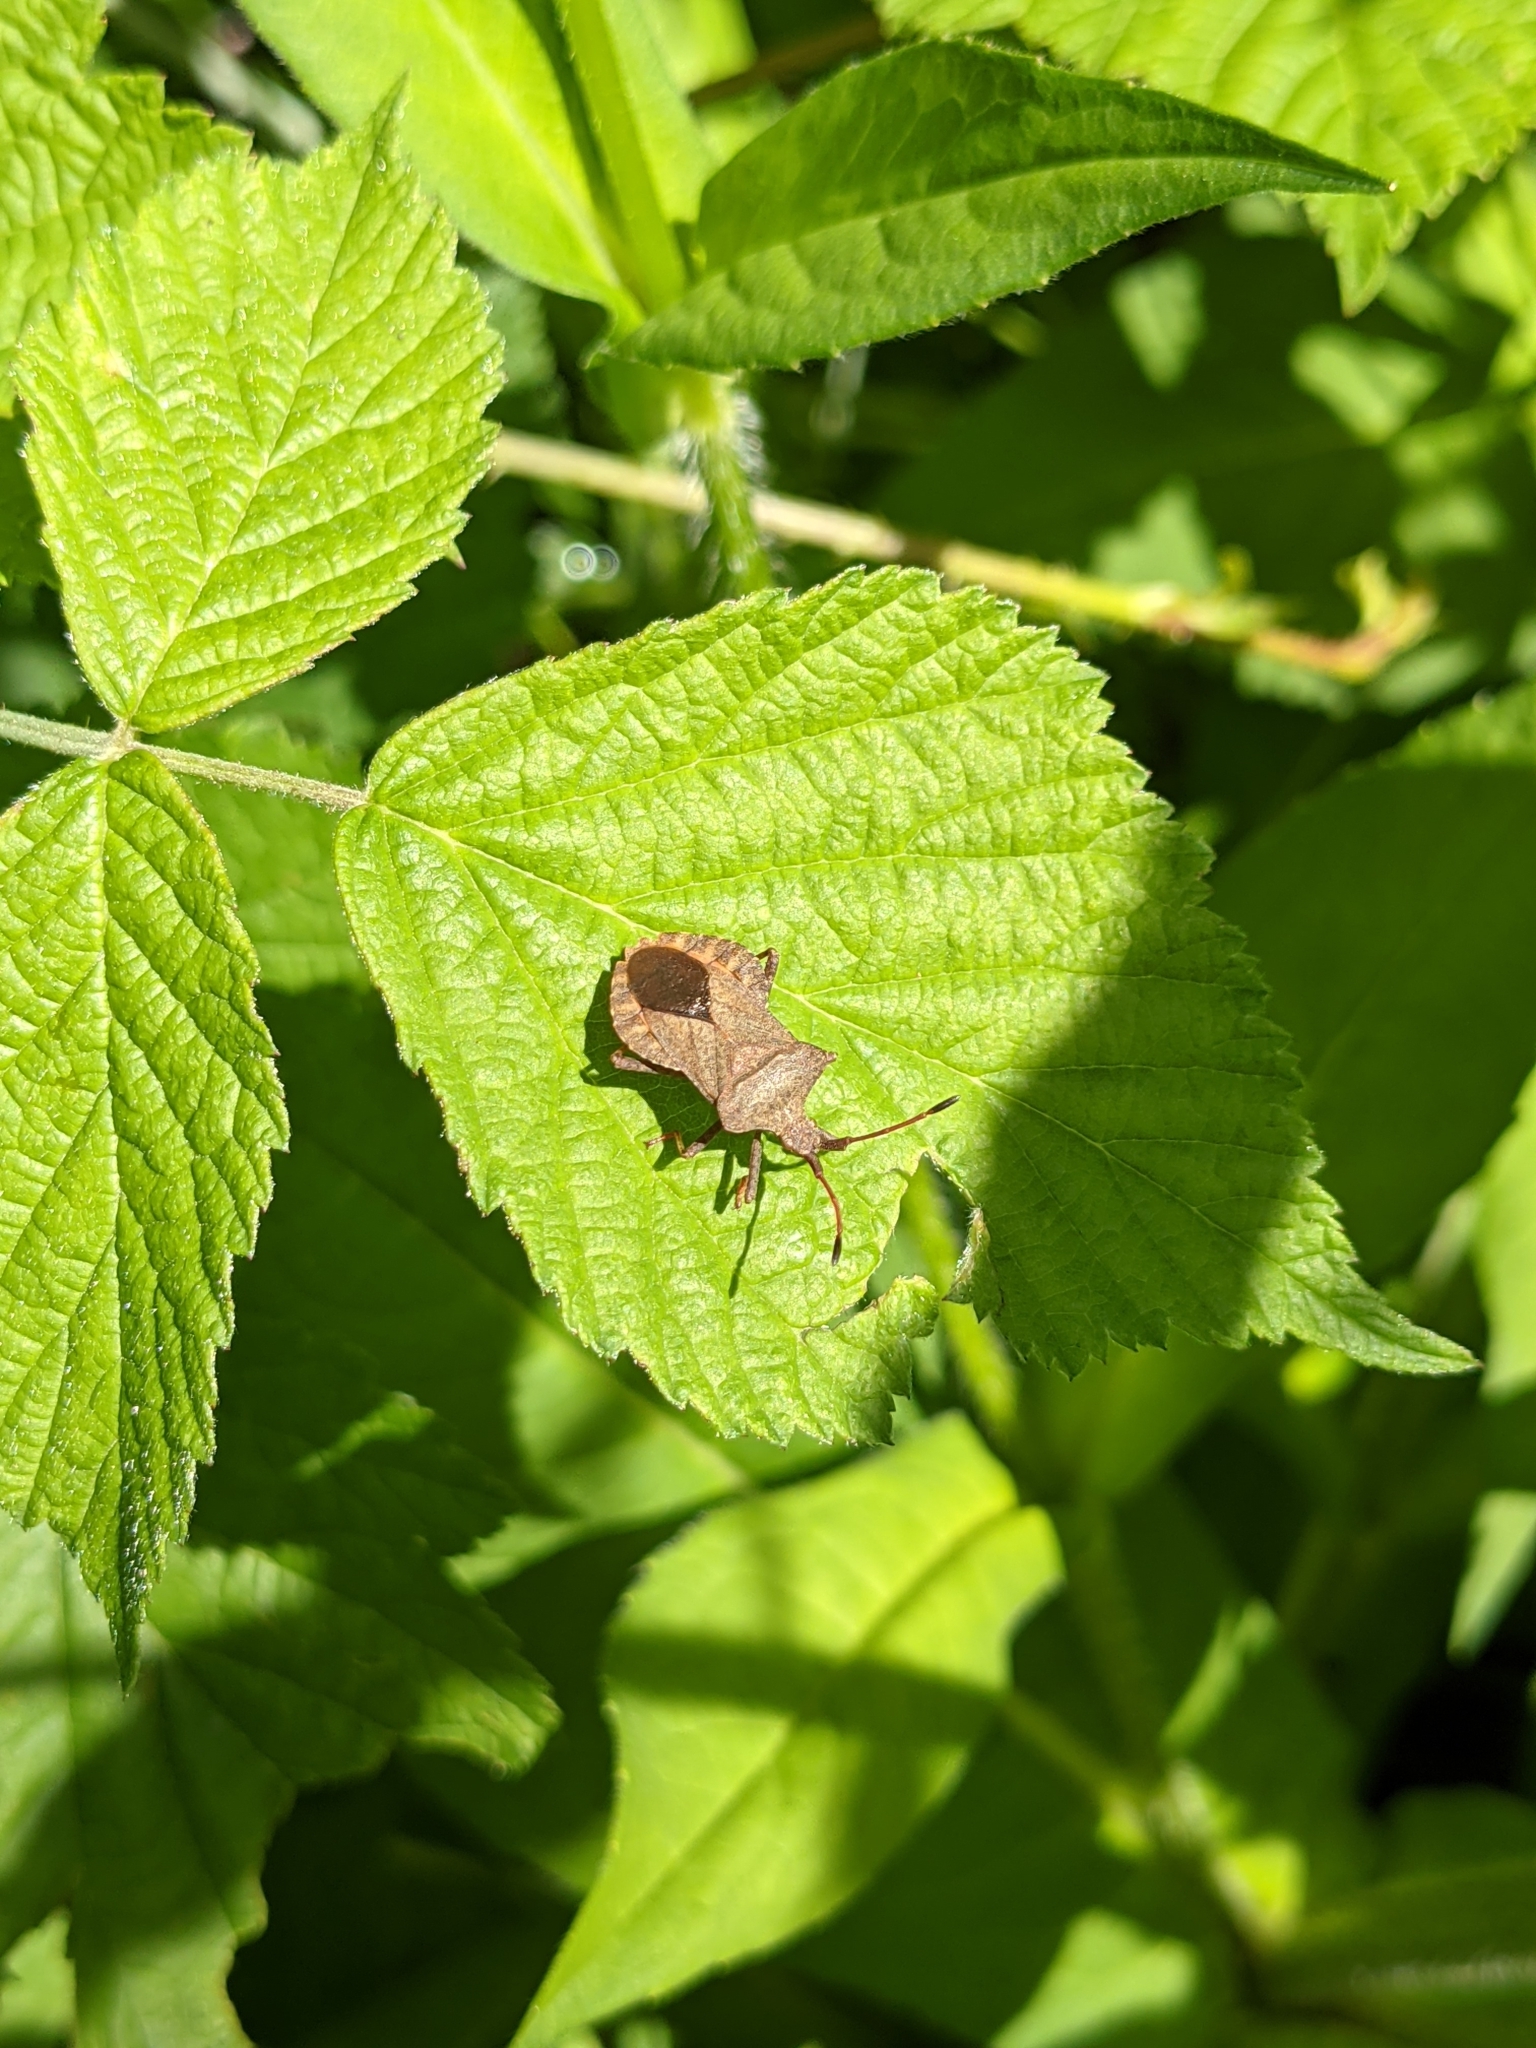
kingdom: Animalia
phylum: Arthropoda
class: Insecta
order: Hemiptera
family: Coreidae
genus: Coreus
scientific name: Coreus marginatus
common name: Dock bug
